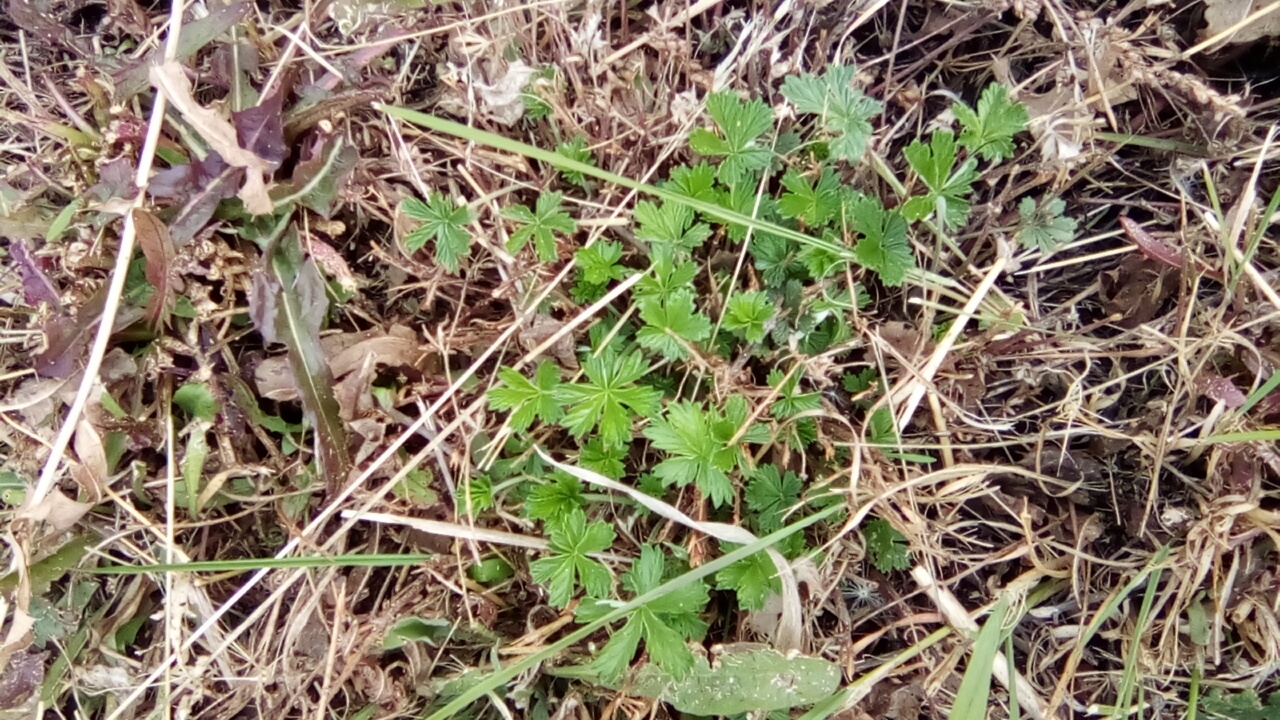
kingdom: Plantae
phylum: Tracheophyta
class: Magnoliopsida
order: Rosales
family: Rosaceae
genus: Potentilla
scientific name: Potentilla intermedia
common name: Downy cinquefoil
